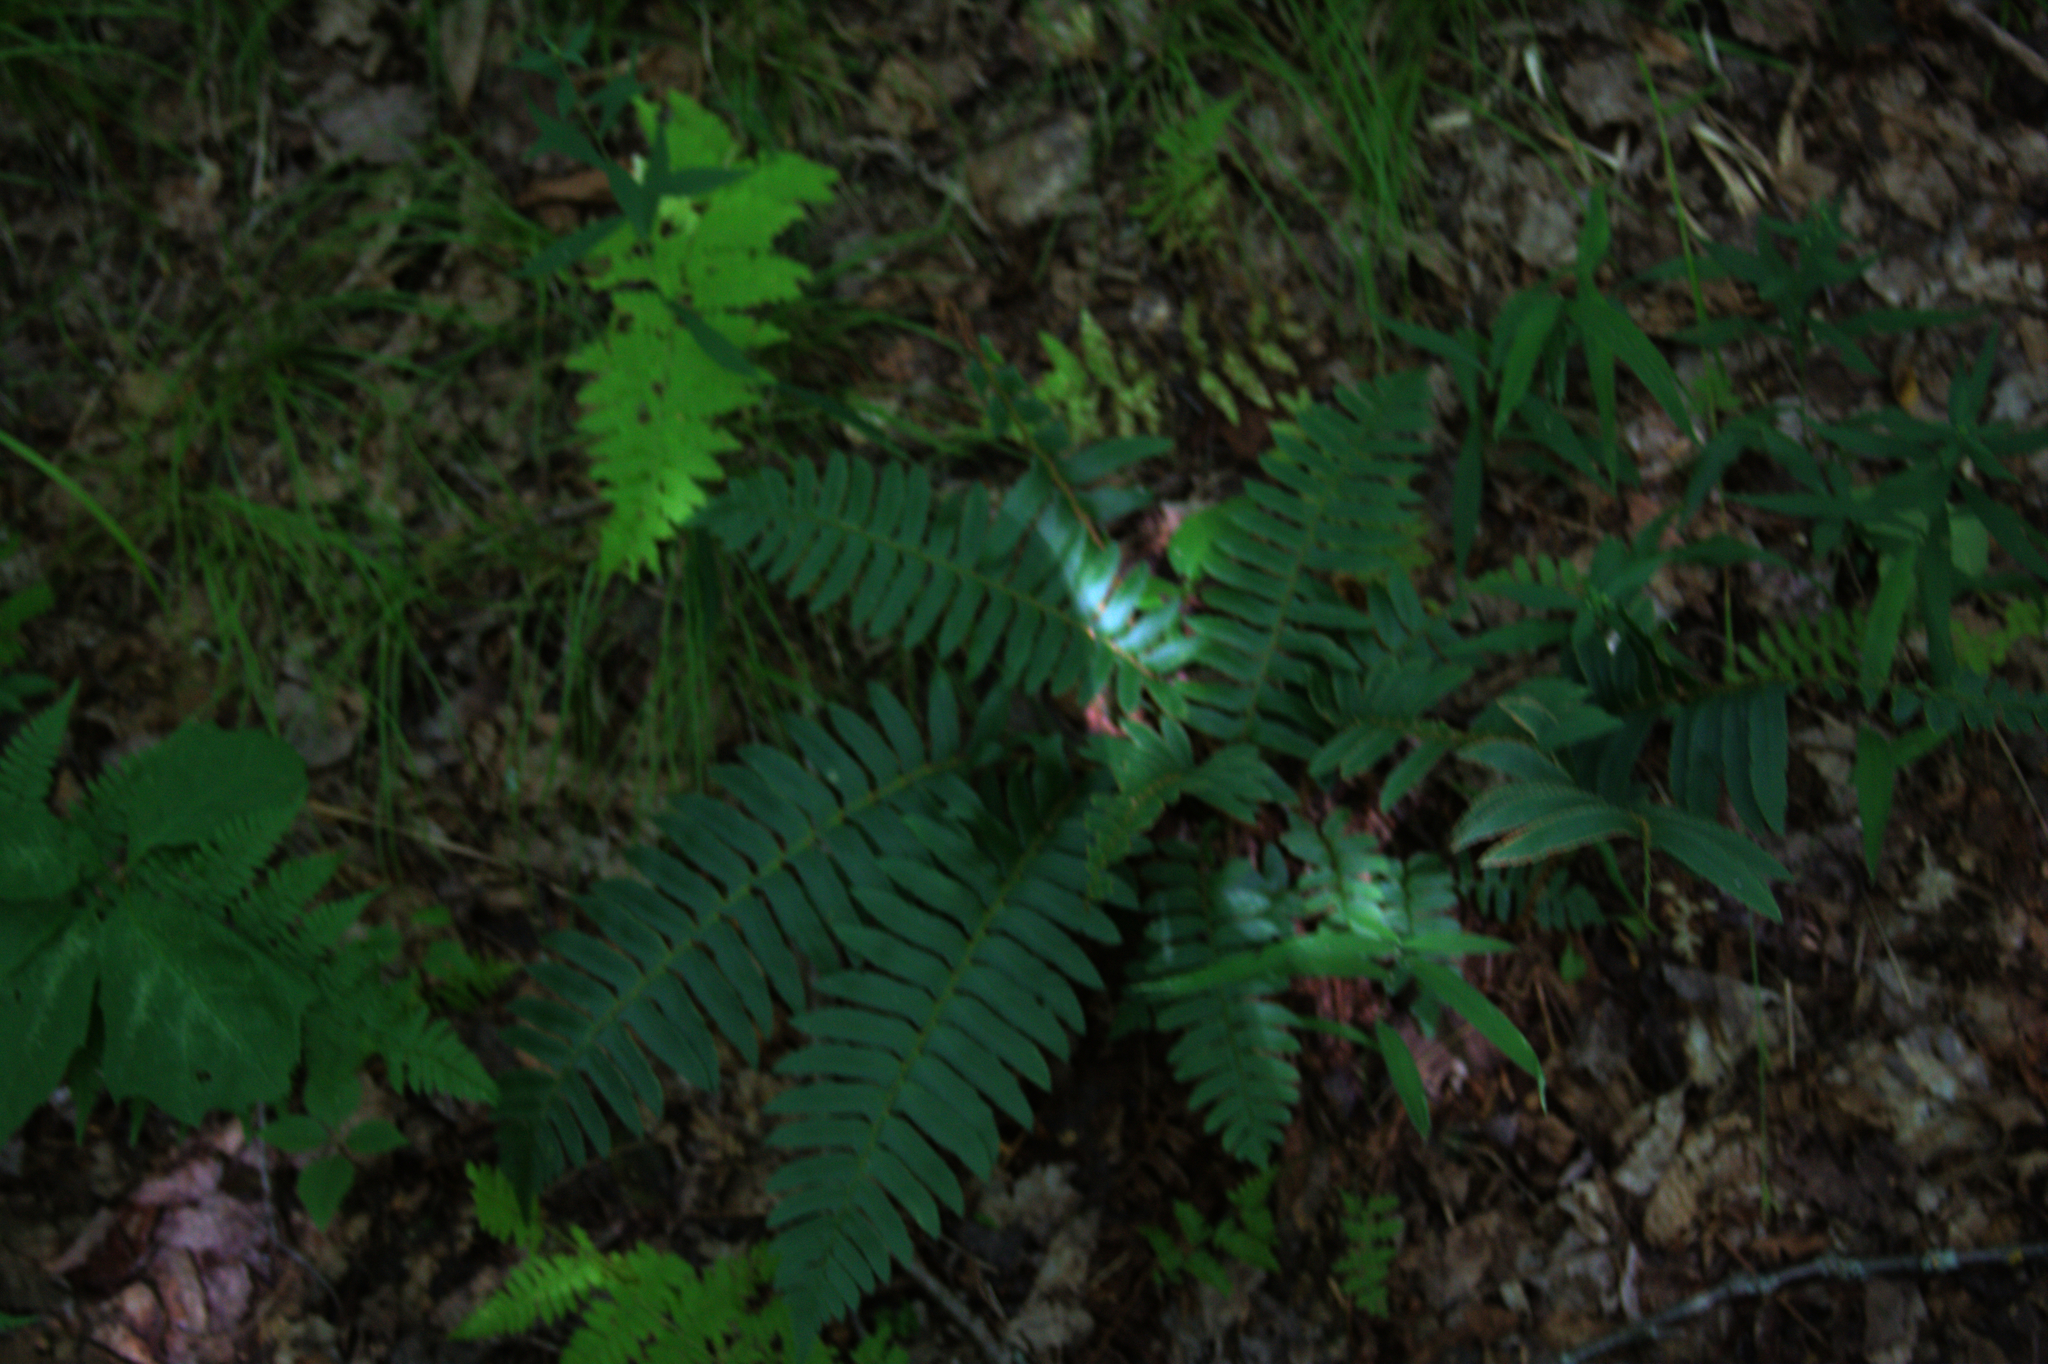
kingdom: Plantae
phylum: Tracheophyta
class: Polypodiopsida
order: Polypodiales
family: Dryopteridaceae
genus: Polystichum
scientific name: Polystichum acrostichoides
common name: Christmas fern
